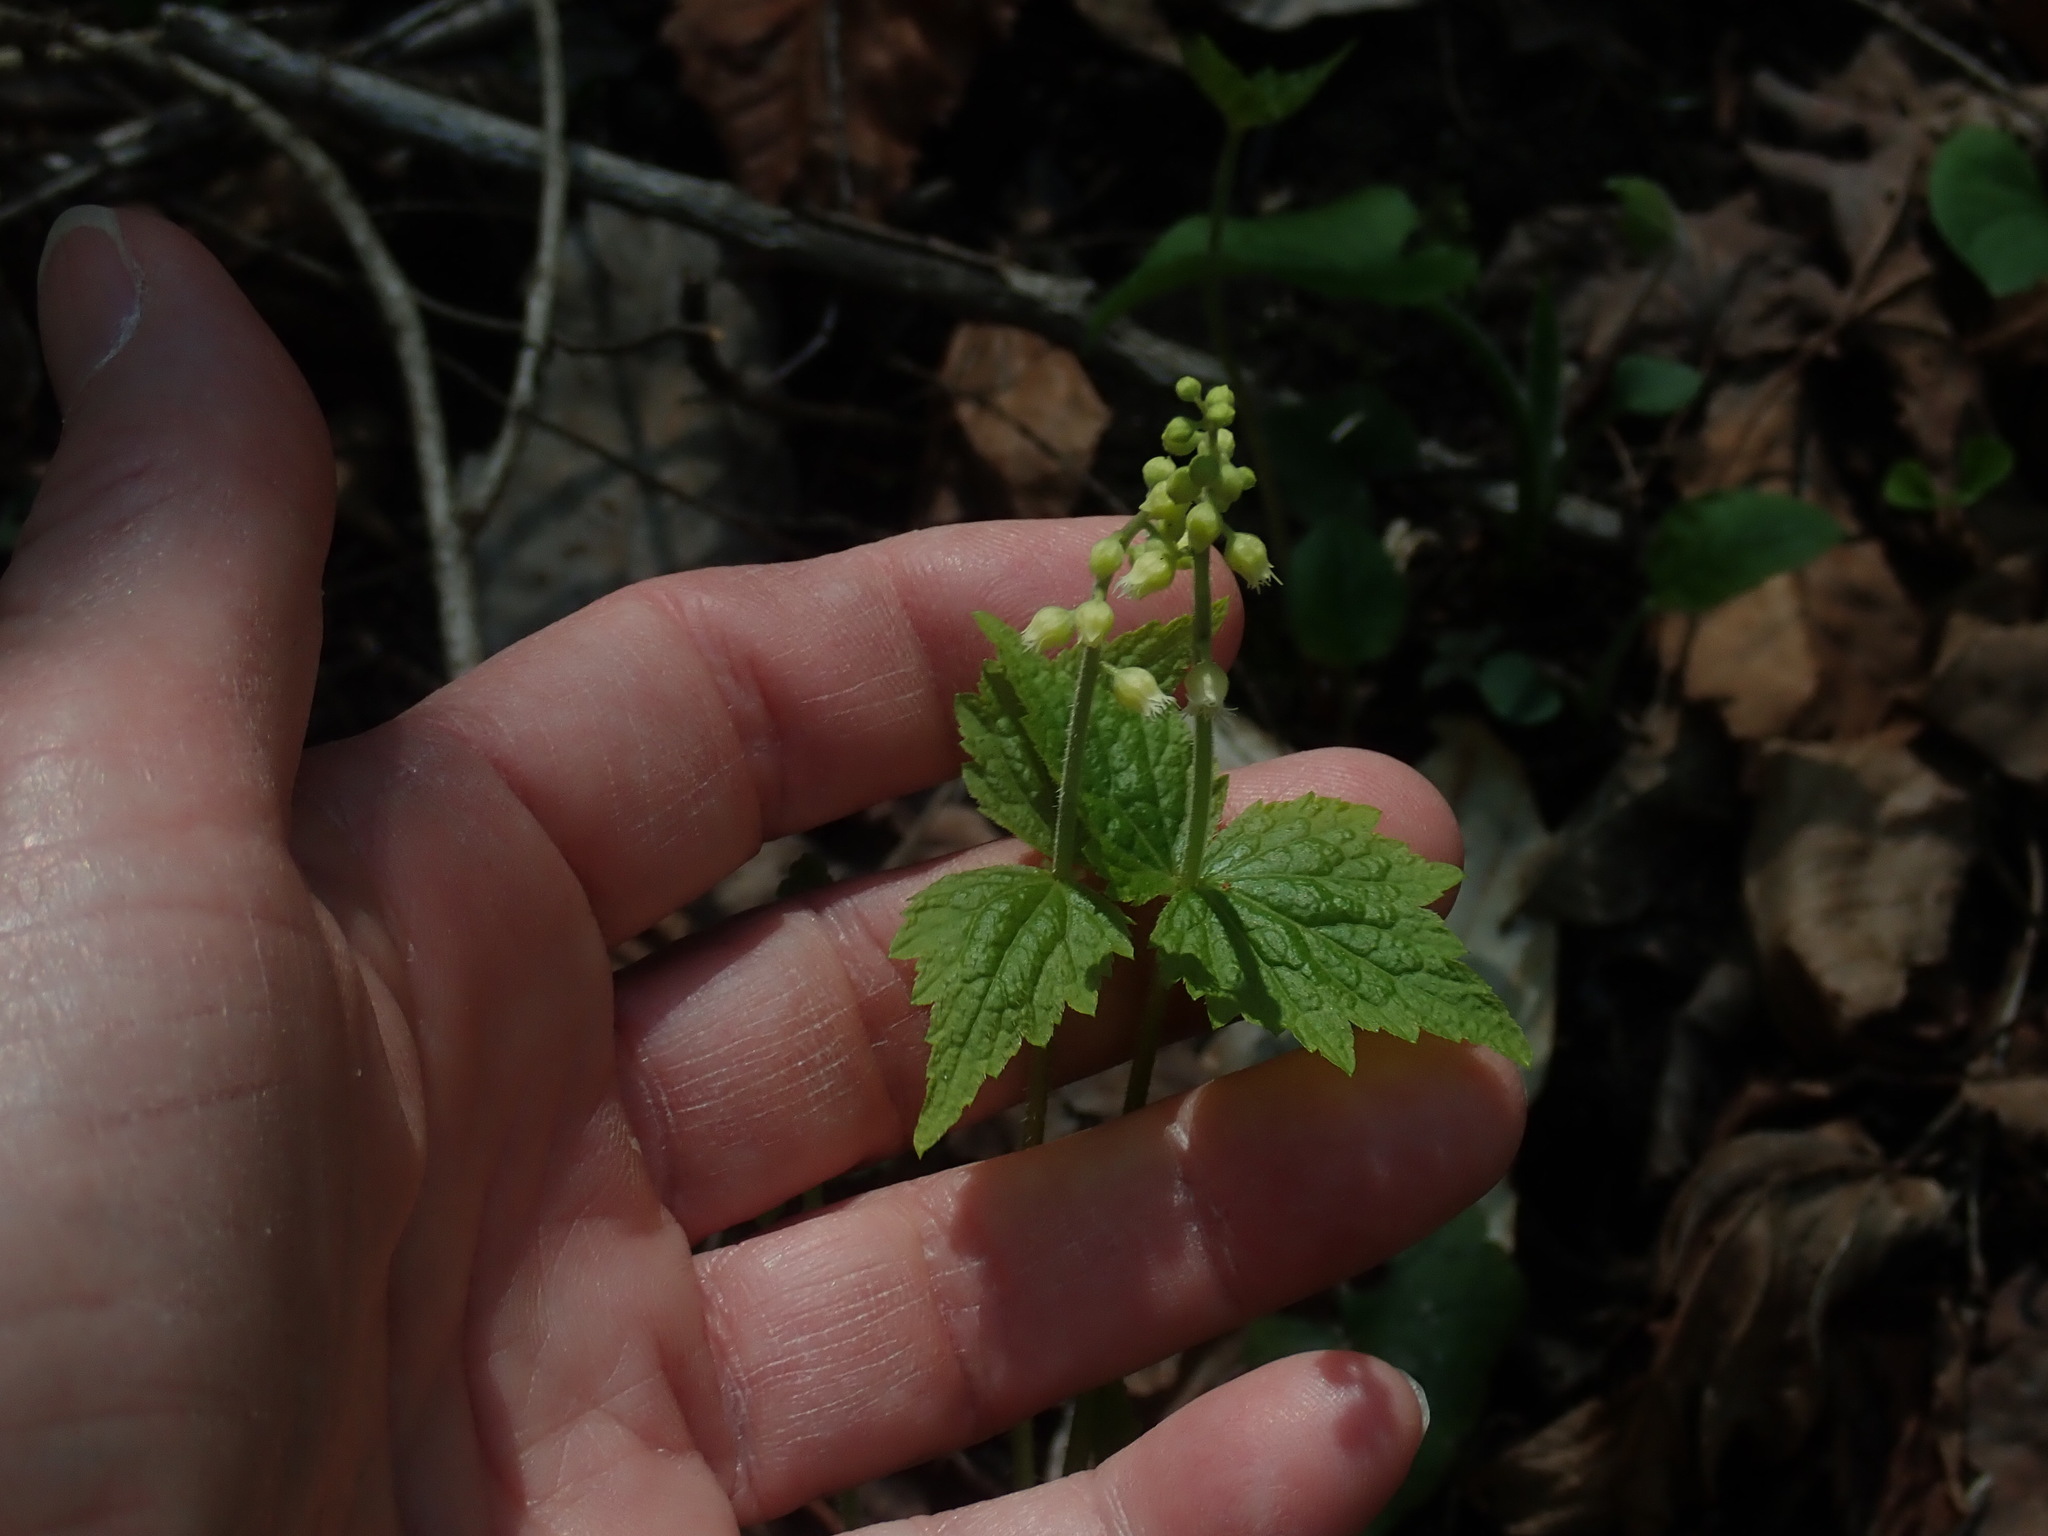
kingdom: Plantae
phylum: Tracheophyta
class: Magnoliopsida
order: Saxifragales
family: Saxifragaceae
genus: Mitella
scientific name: Mitella diphylla
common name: Coolwort
